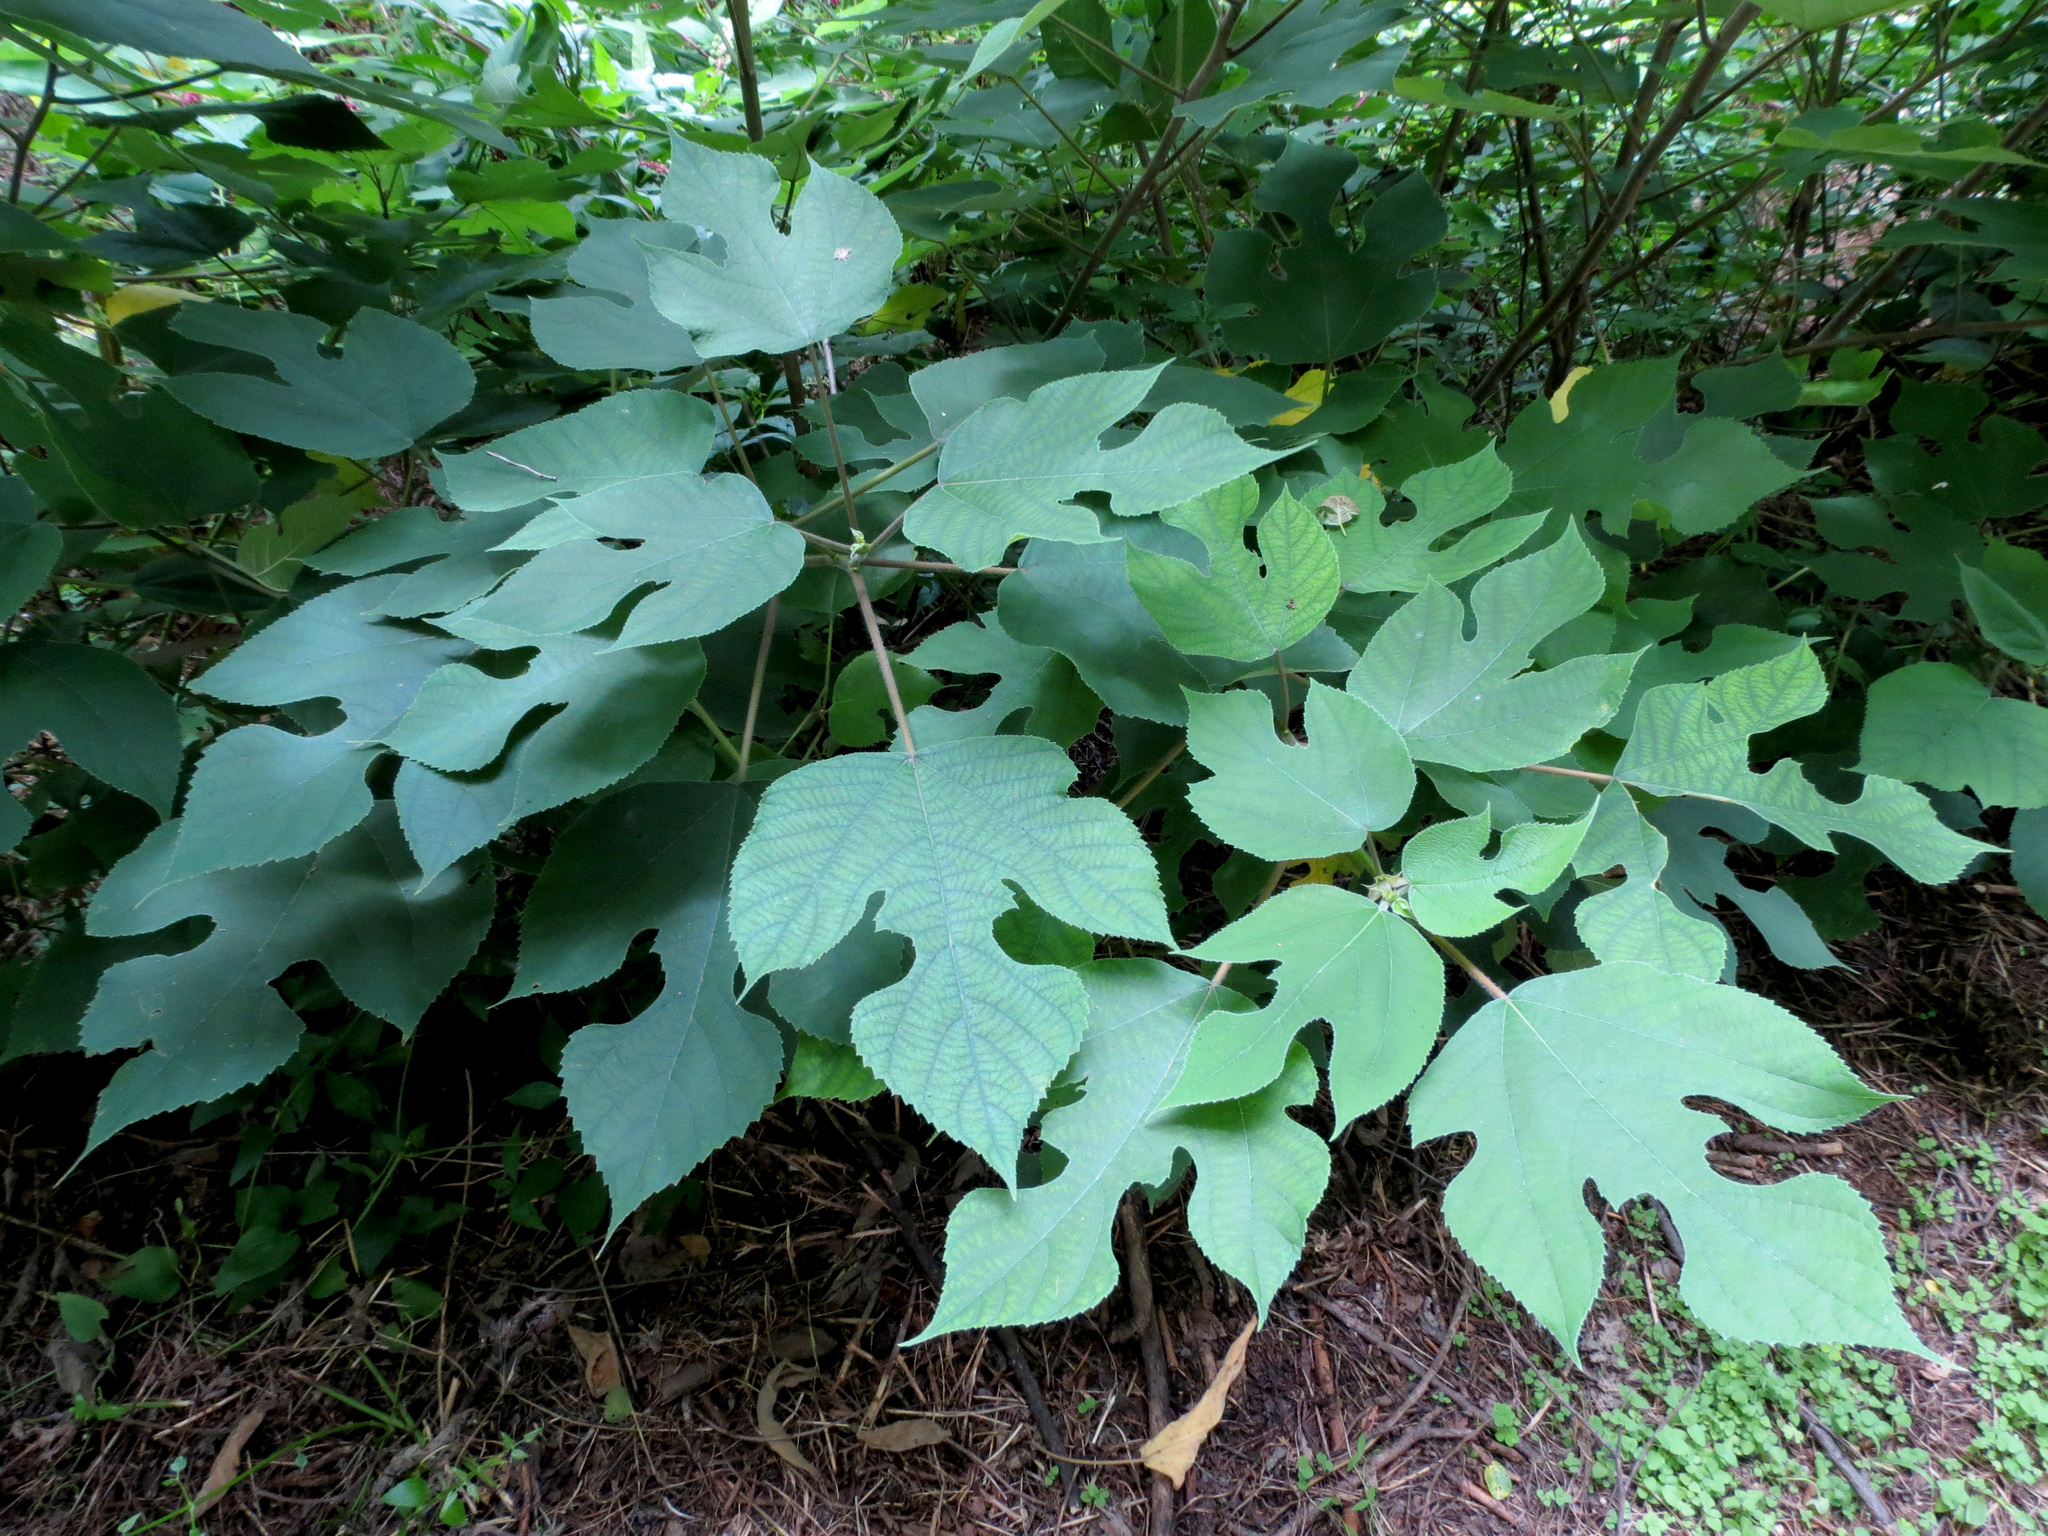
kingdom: Plantae
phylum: Tracheophyta
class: Magnoliopsida
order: Rosales
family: Moraceae
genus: Broussonetia
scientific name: Broussonetia papyrifera
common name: Paper mulberry
